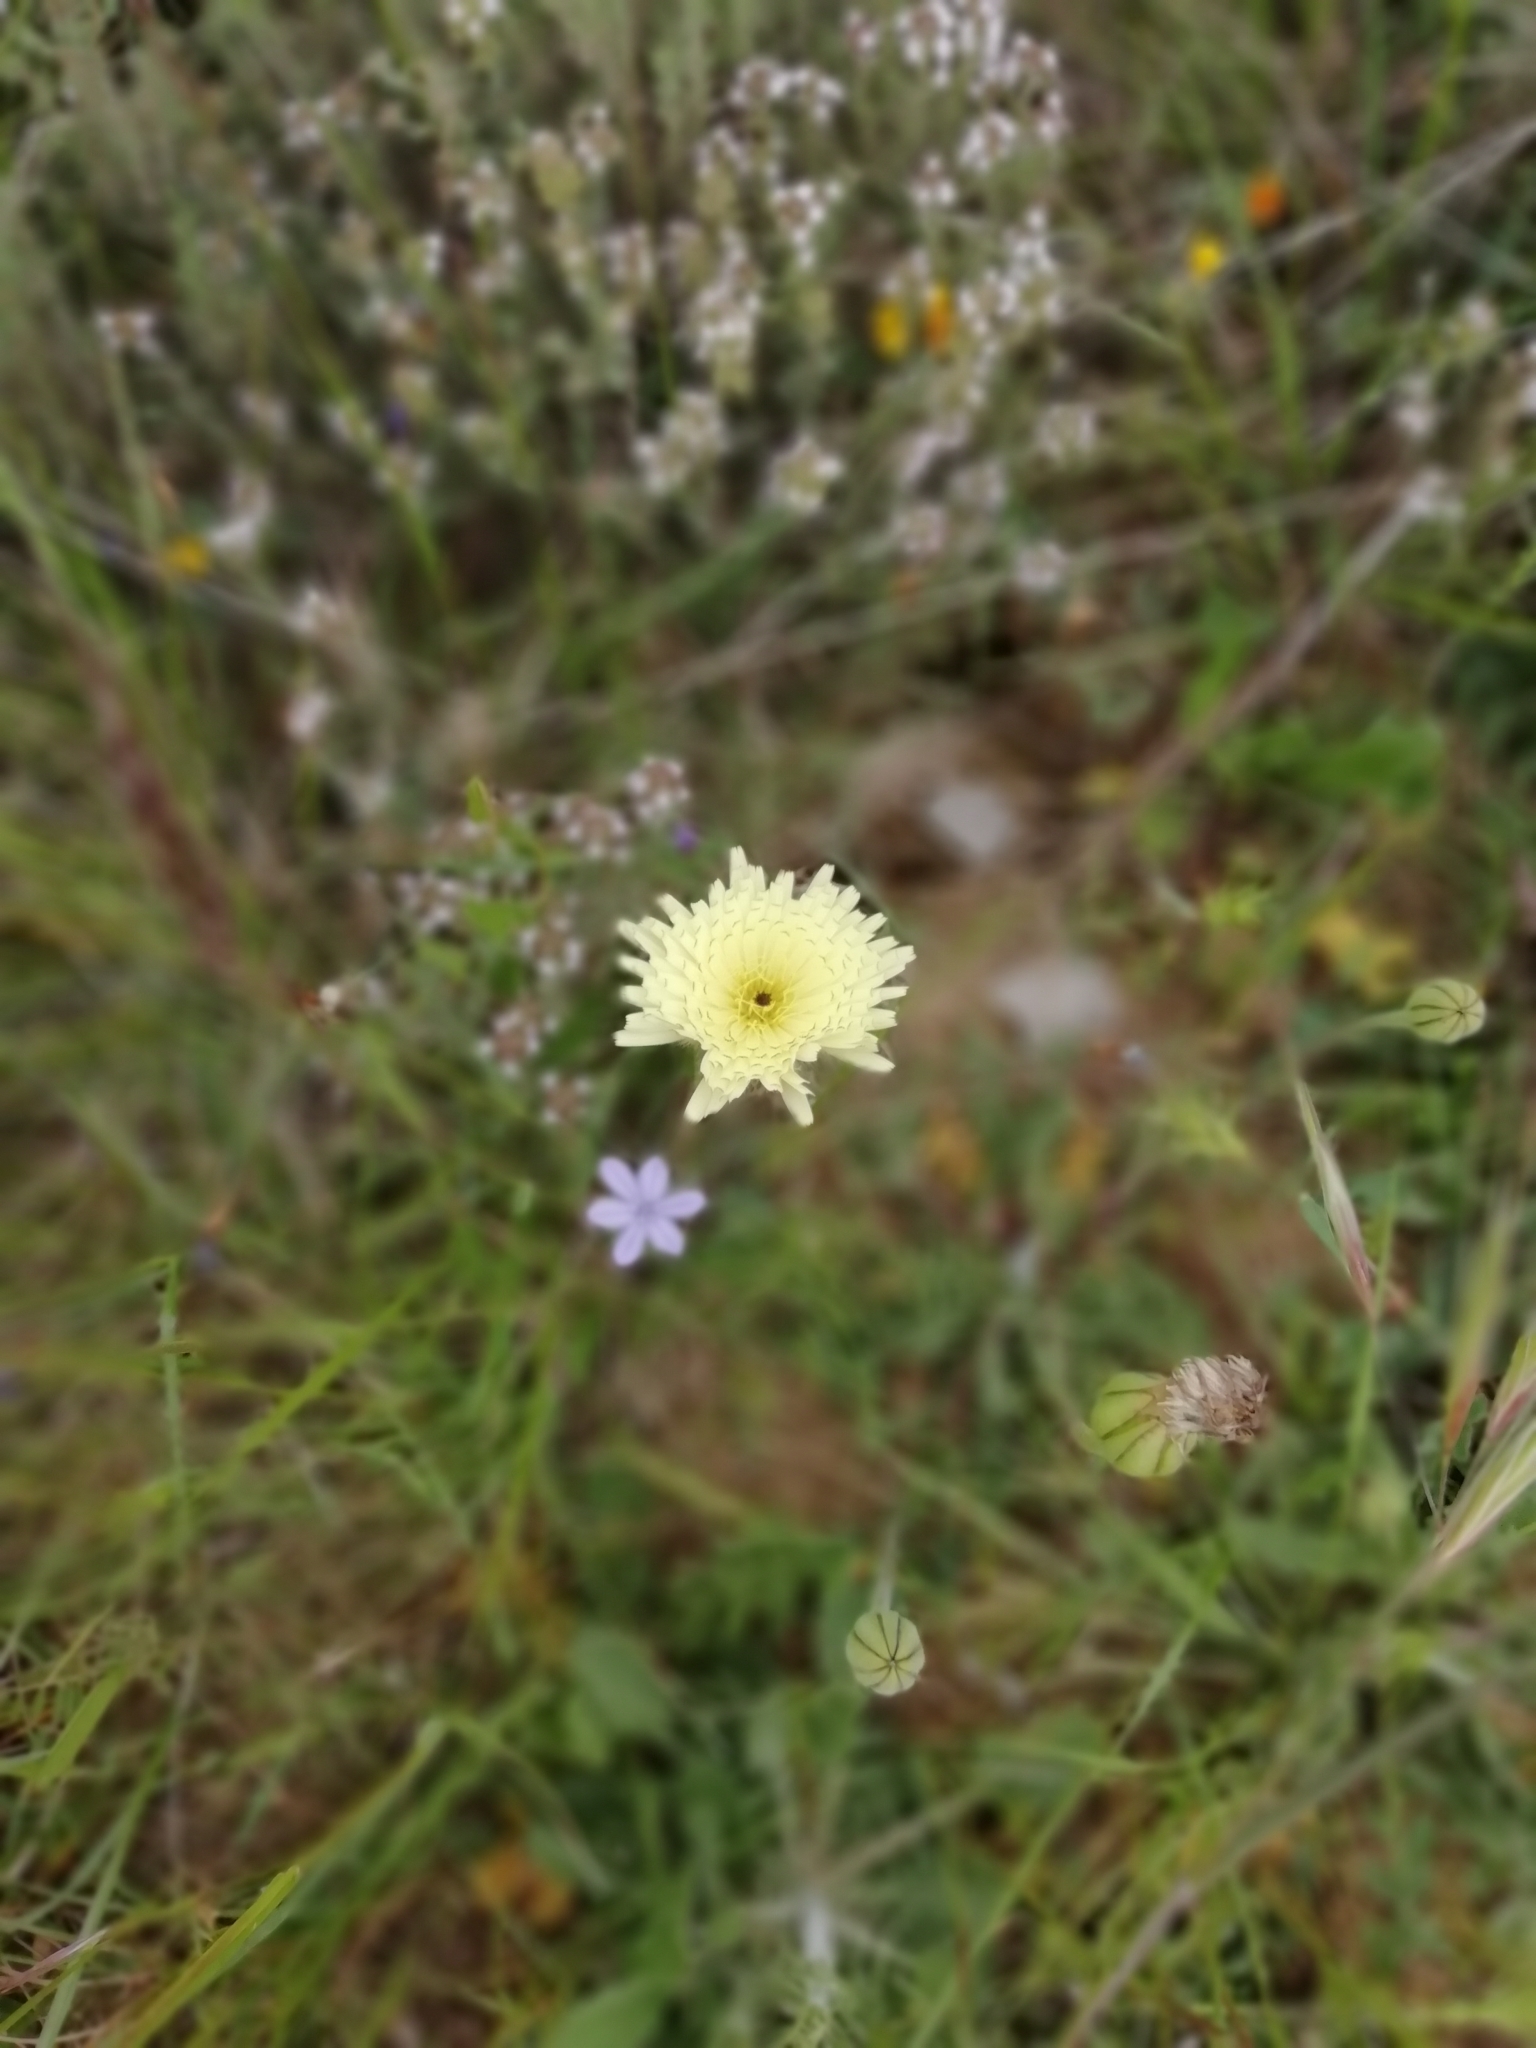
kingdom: Plantae
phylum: Tracheophyta
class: Magnoliopsida
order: Asterales
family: Asteraceae
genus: Urospermum
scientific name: Urospermum dalechampii
